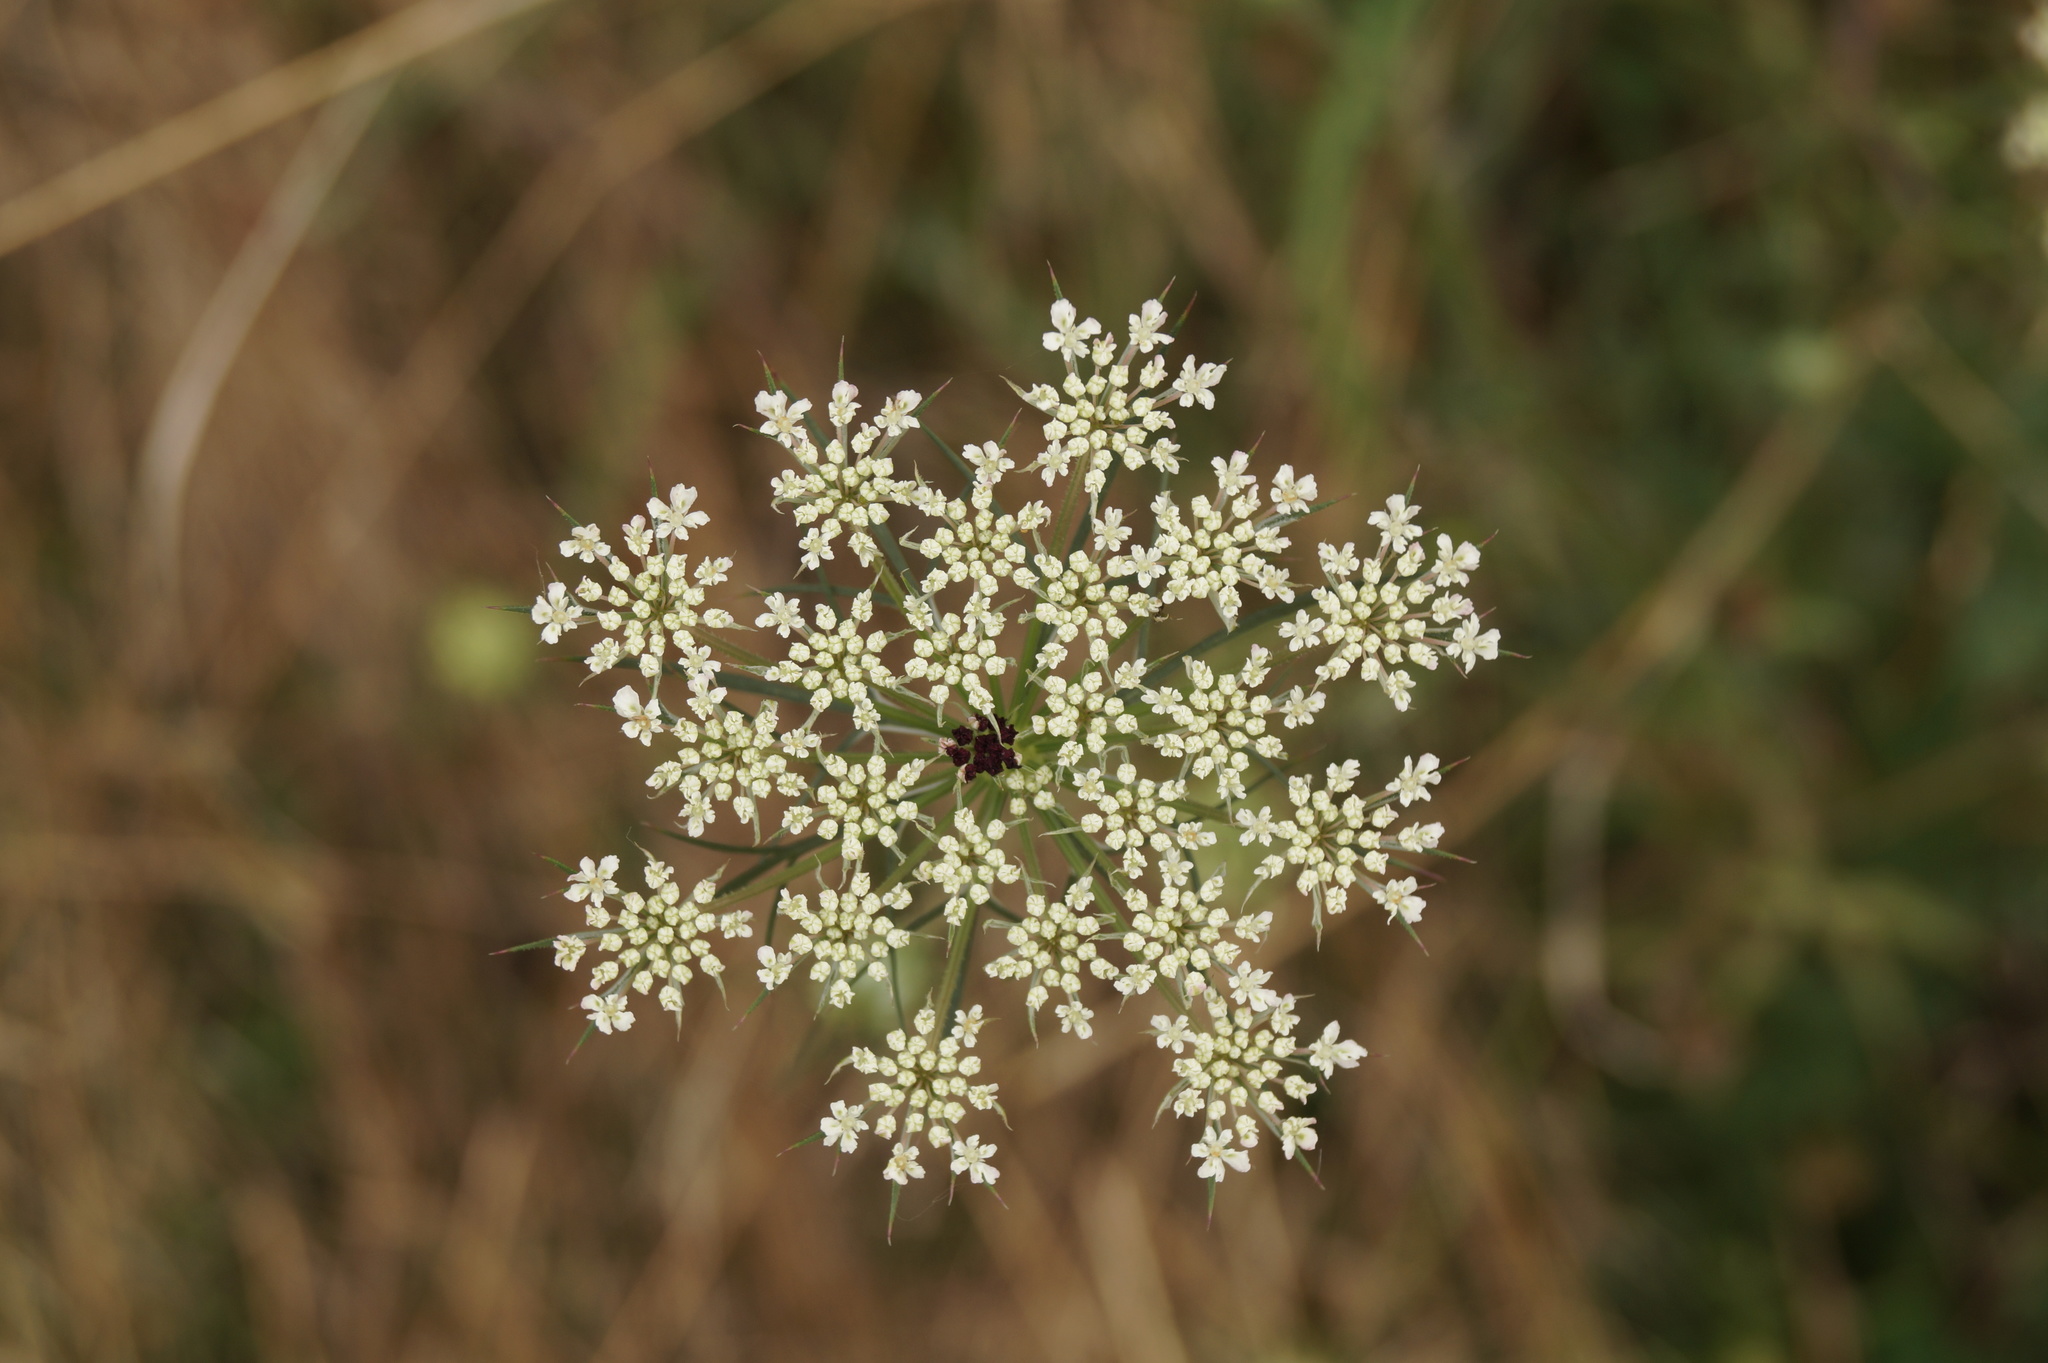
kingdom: Plantae
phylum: Tracheophyta
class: Magnoliopsida
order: Apiales
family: Apiaceae
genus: Daucus
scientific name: Daucus carota
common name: Wild carrot
